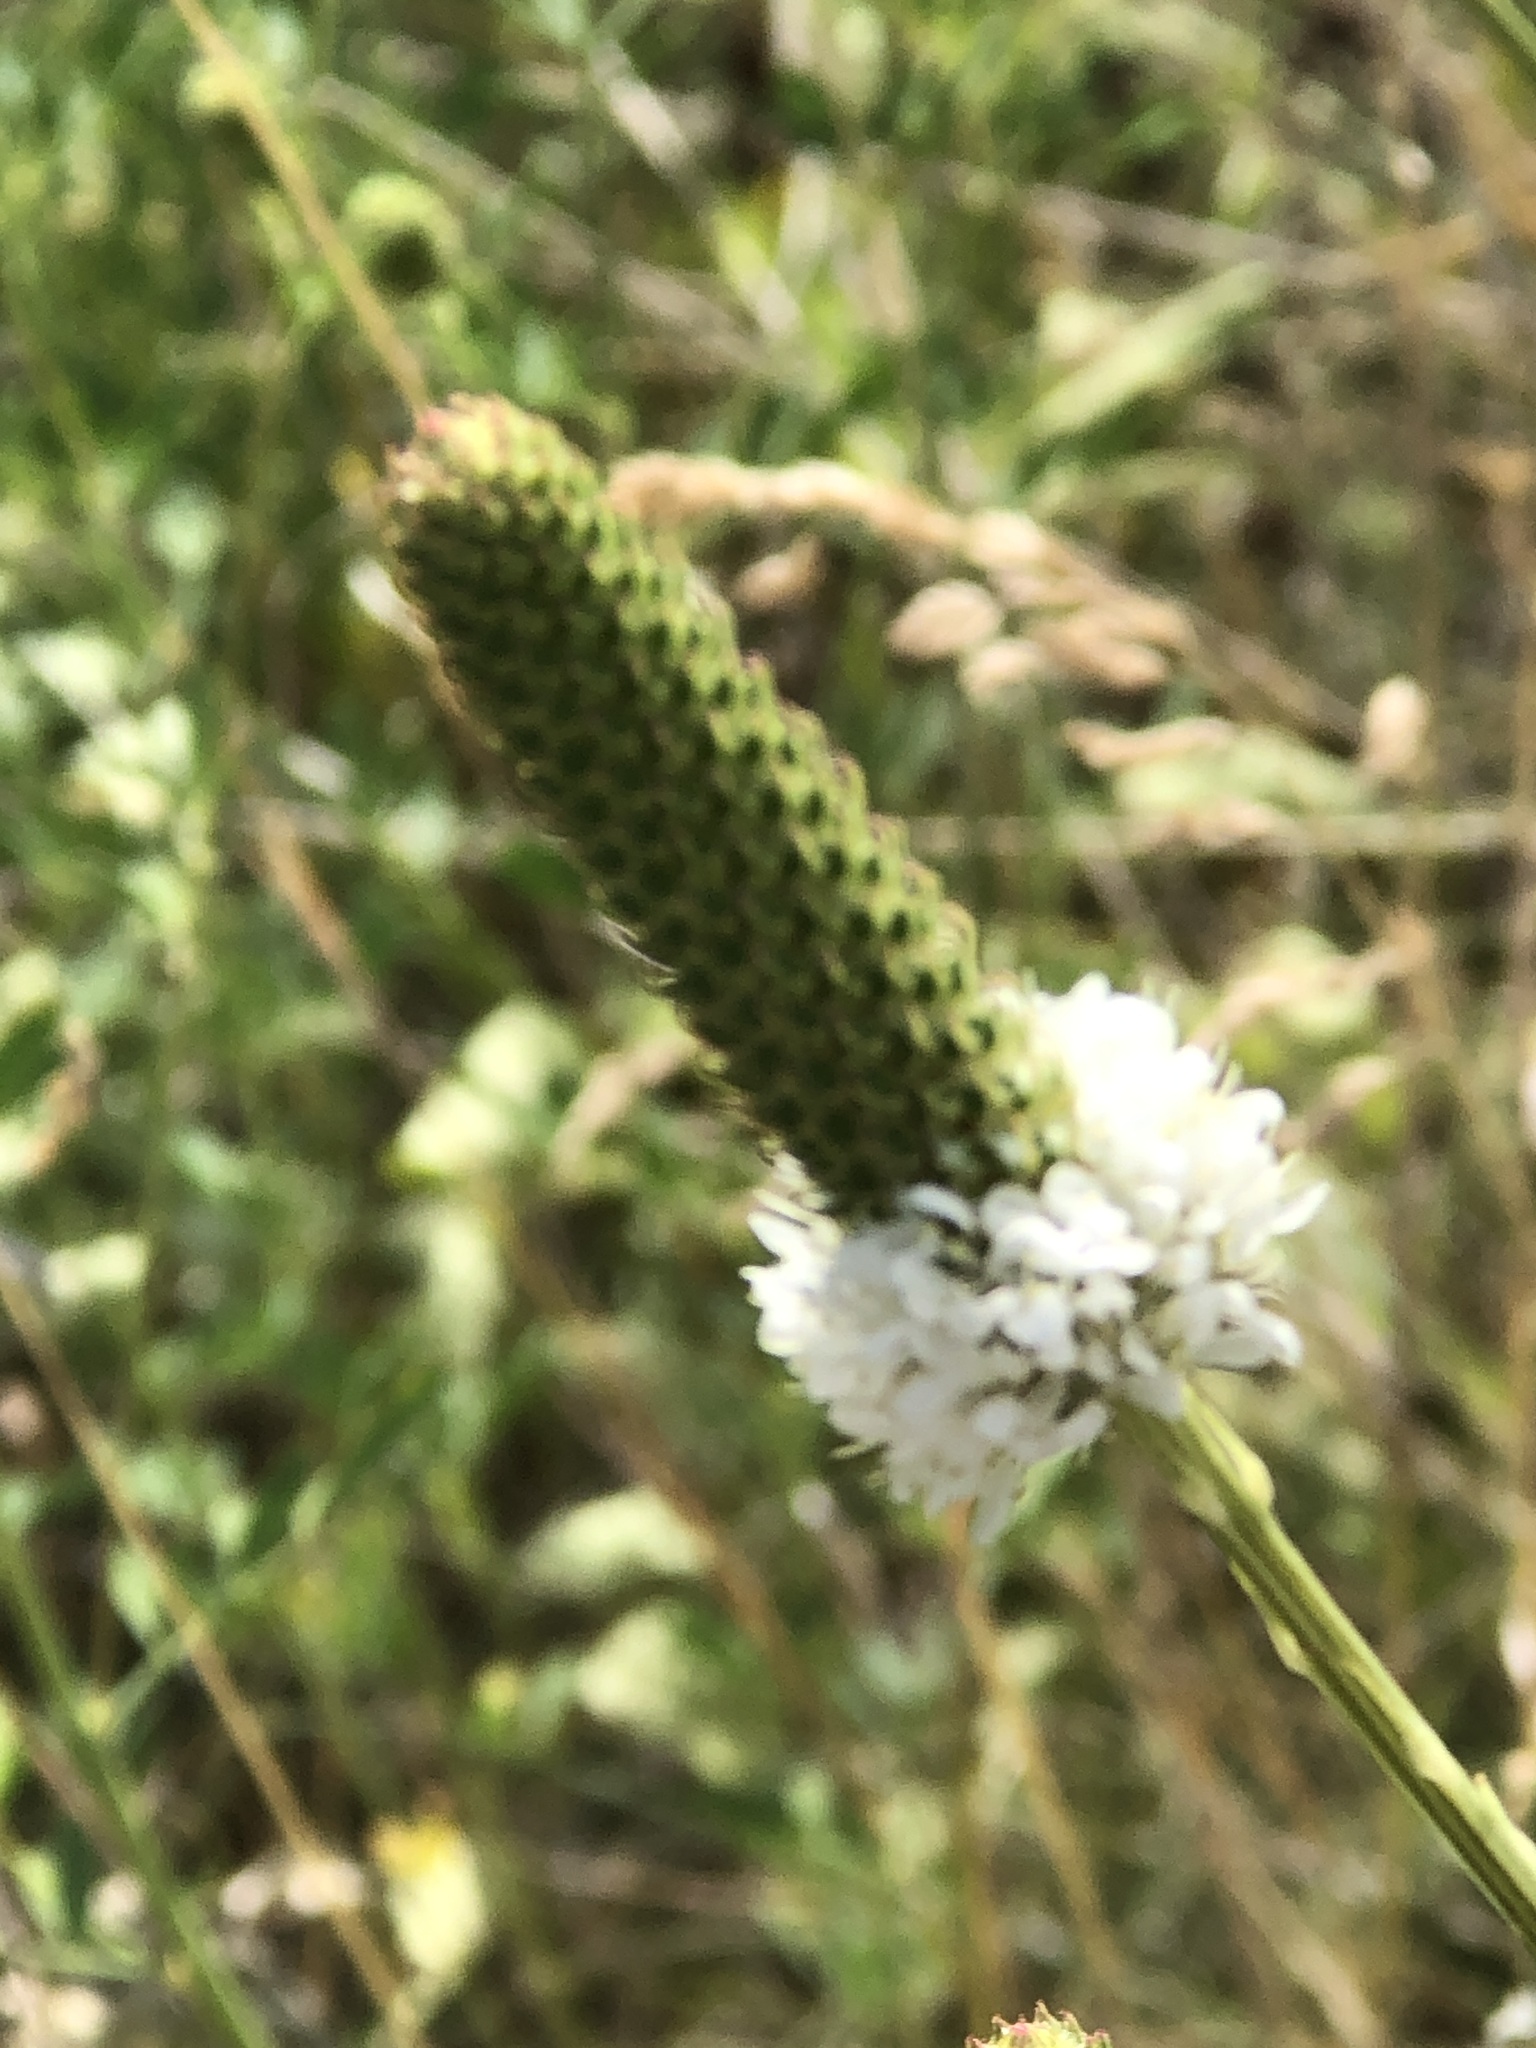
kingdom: Plantae
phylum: Tracheophyta
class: Magnoliopsida
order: Fabales
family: Fabaceae
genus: Dalea
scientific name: Dalea candida
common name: White prairie-clover
